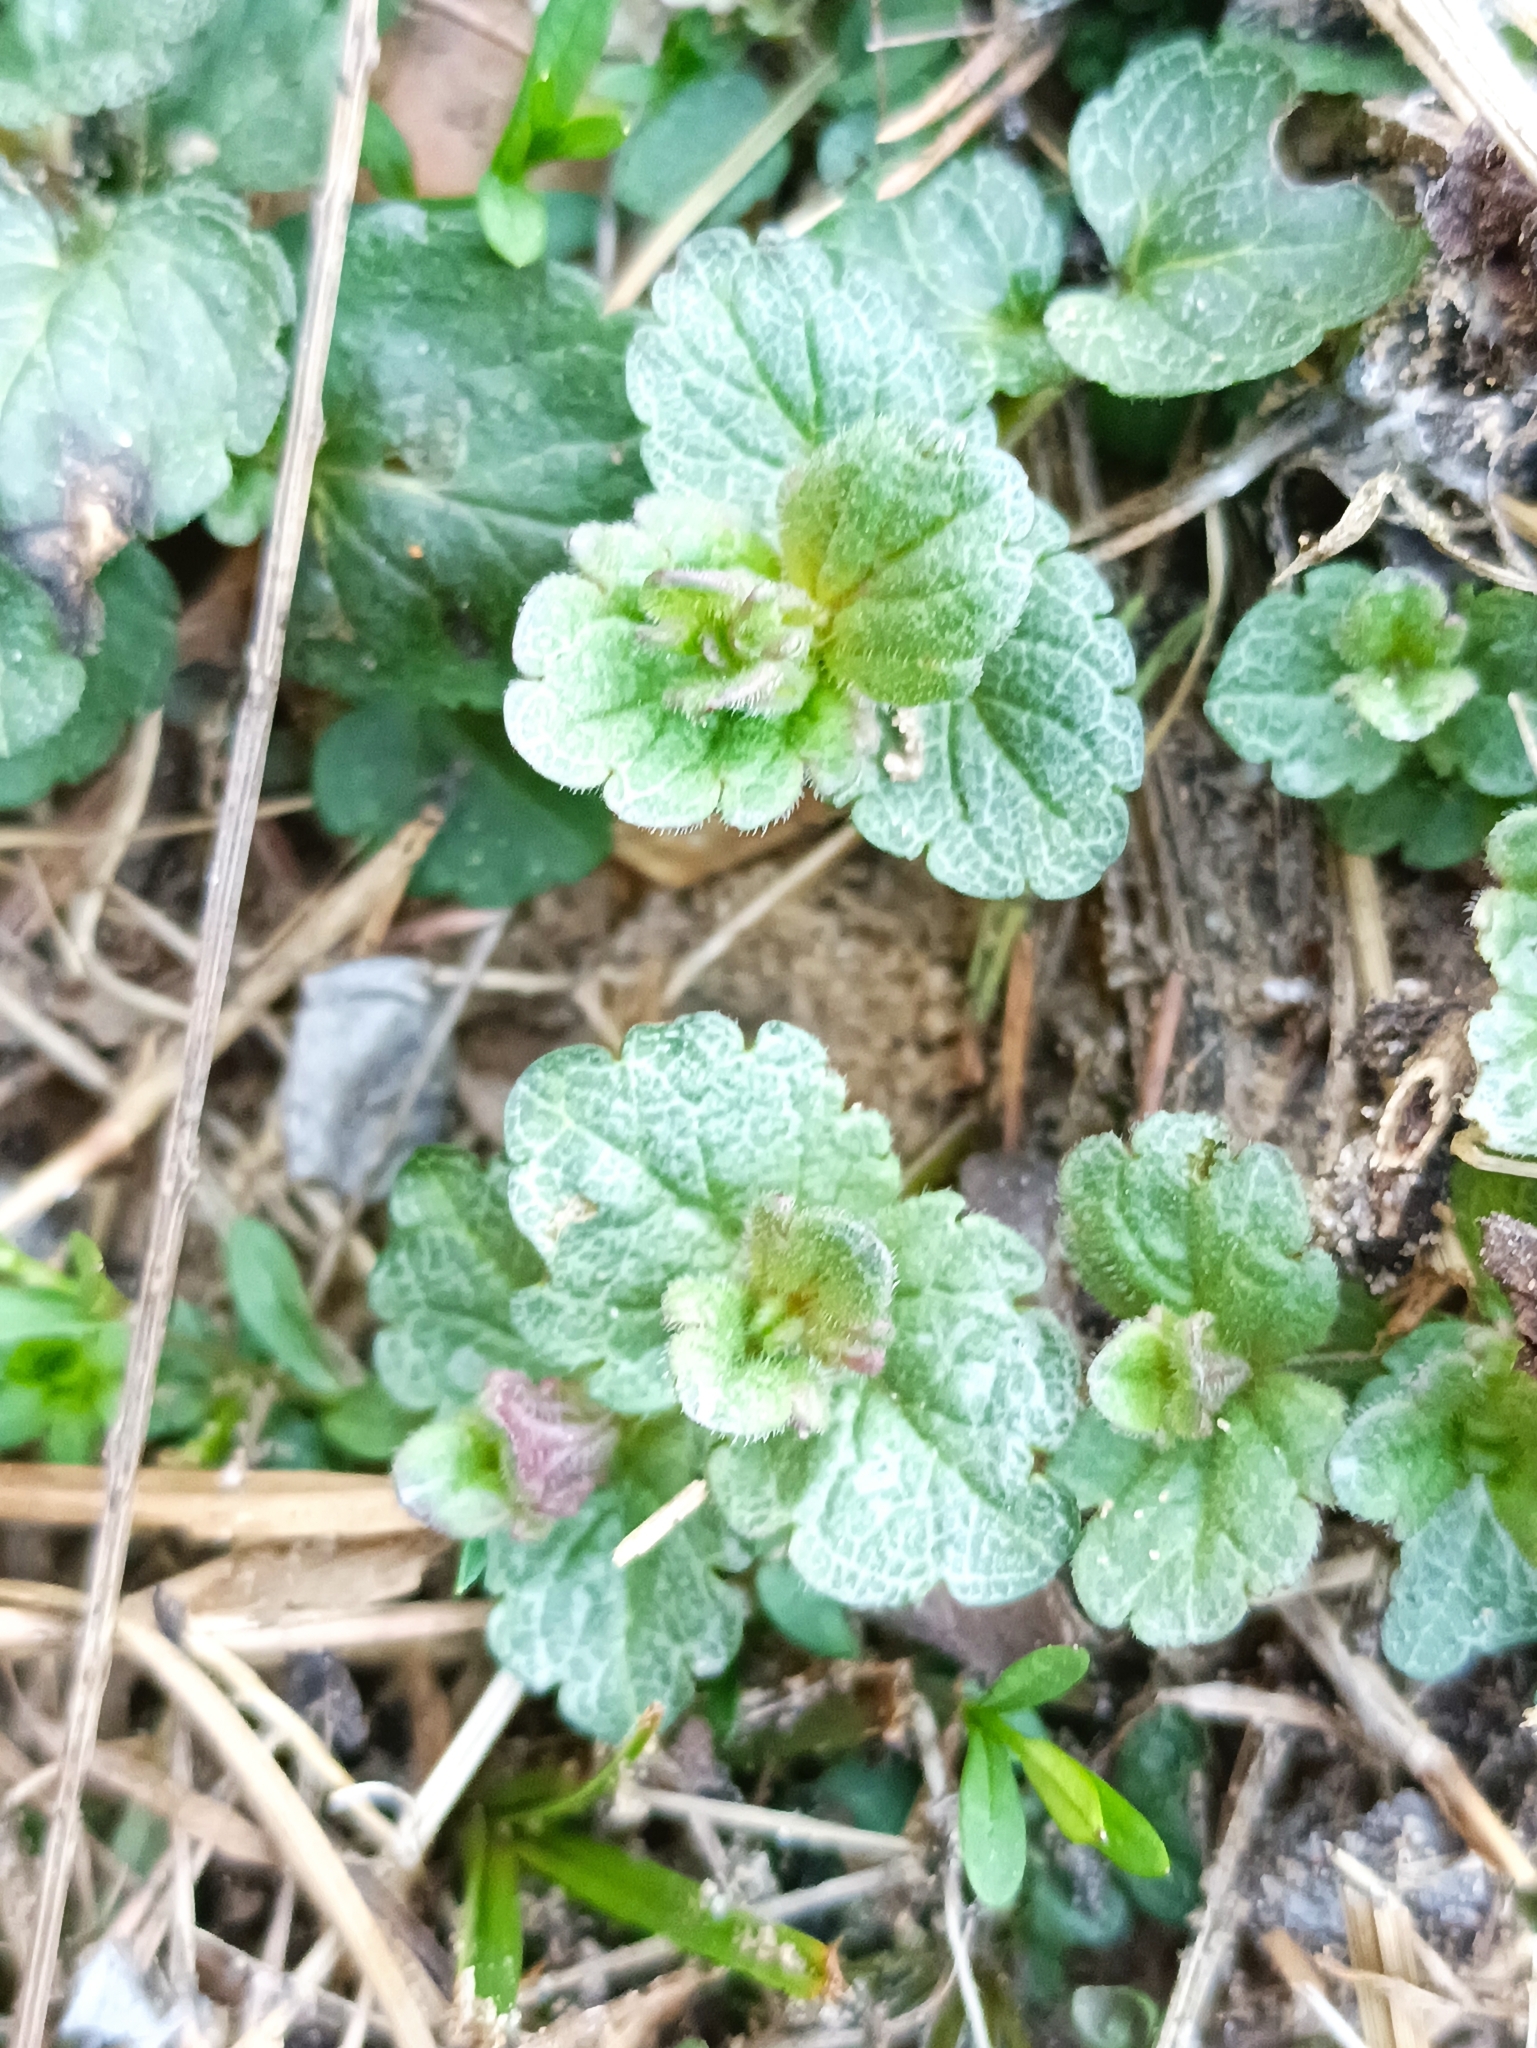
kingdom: Plantae
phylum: Tracheophyta
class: Magnoliopsida
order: Lamiales
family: Plantaginaceae
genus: Veronica
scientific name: Veronica chamaedrys
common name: Germander speedwell
